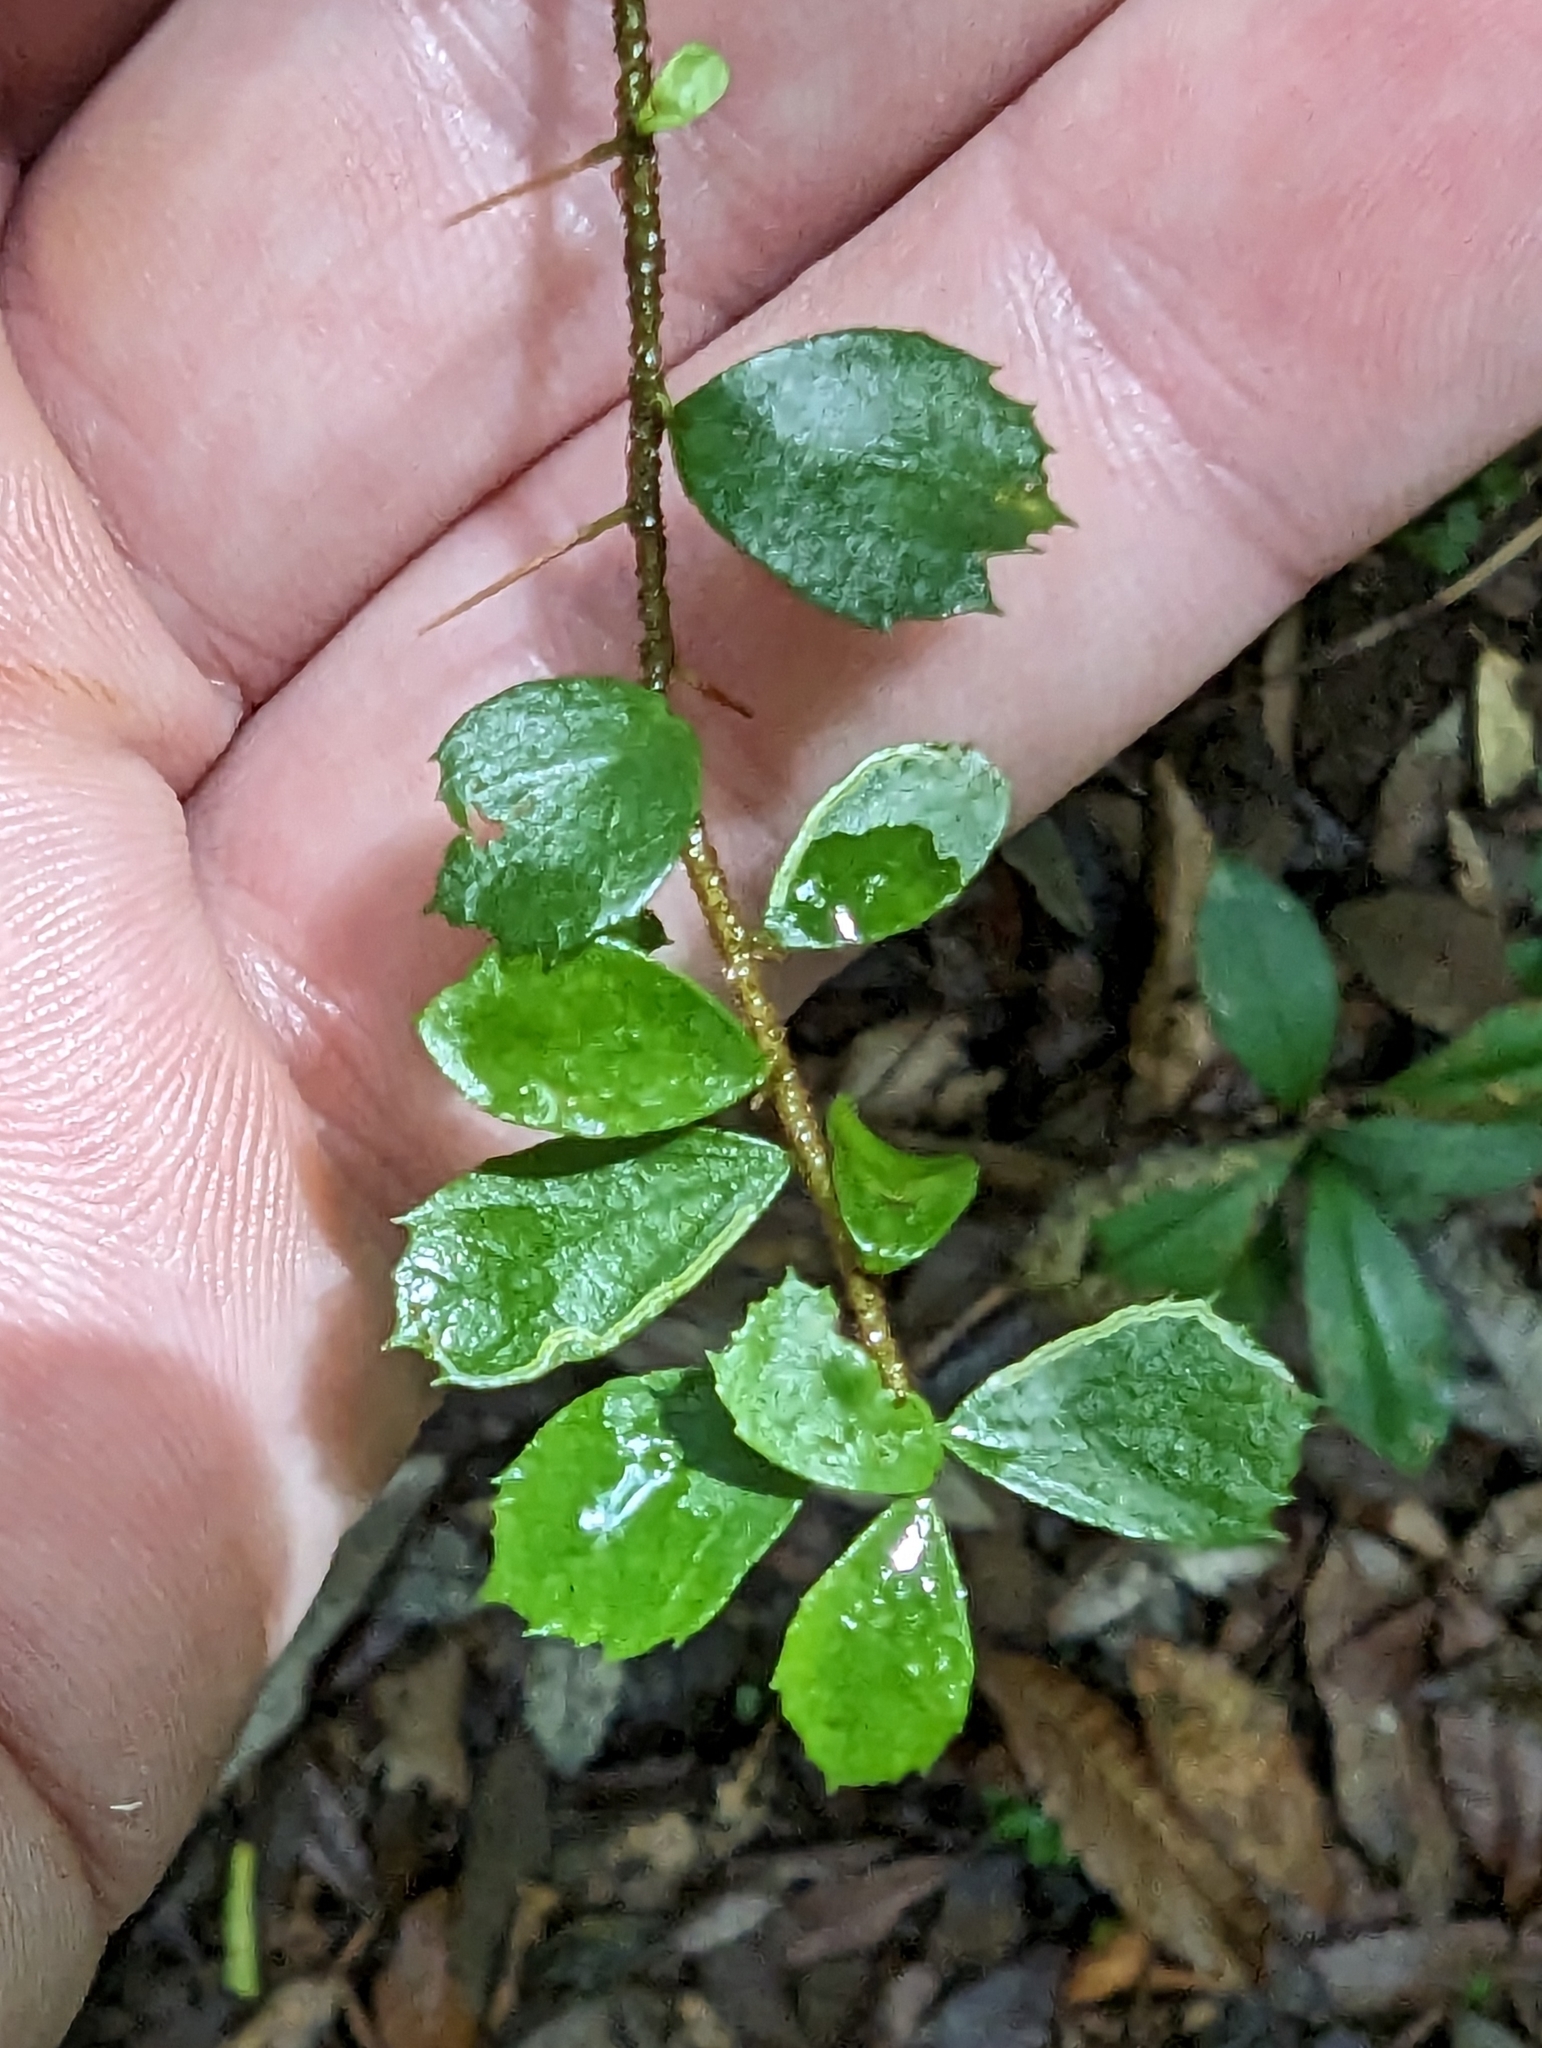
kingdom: Plantae
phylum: Tracheophyta
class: Magnoliopsida
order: Apiales
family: Pittosporaceae
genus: Pittosporum
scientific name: Pittosporum multiflorum
